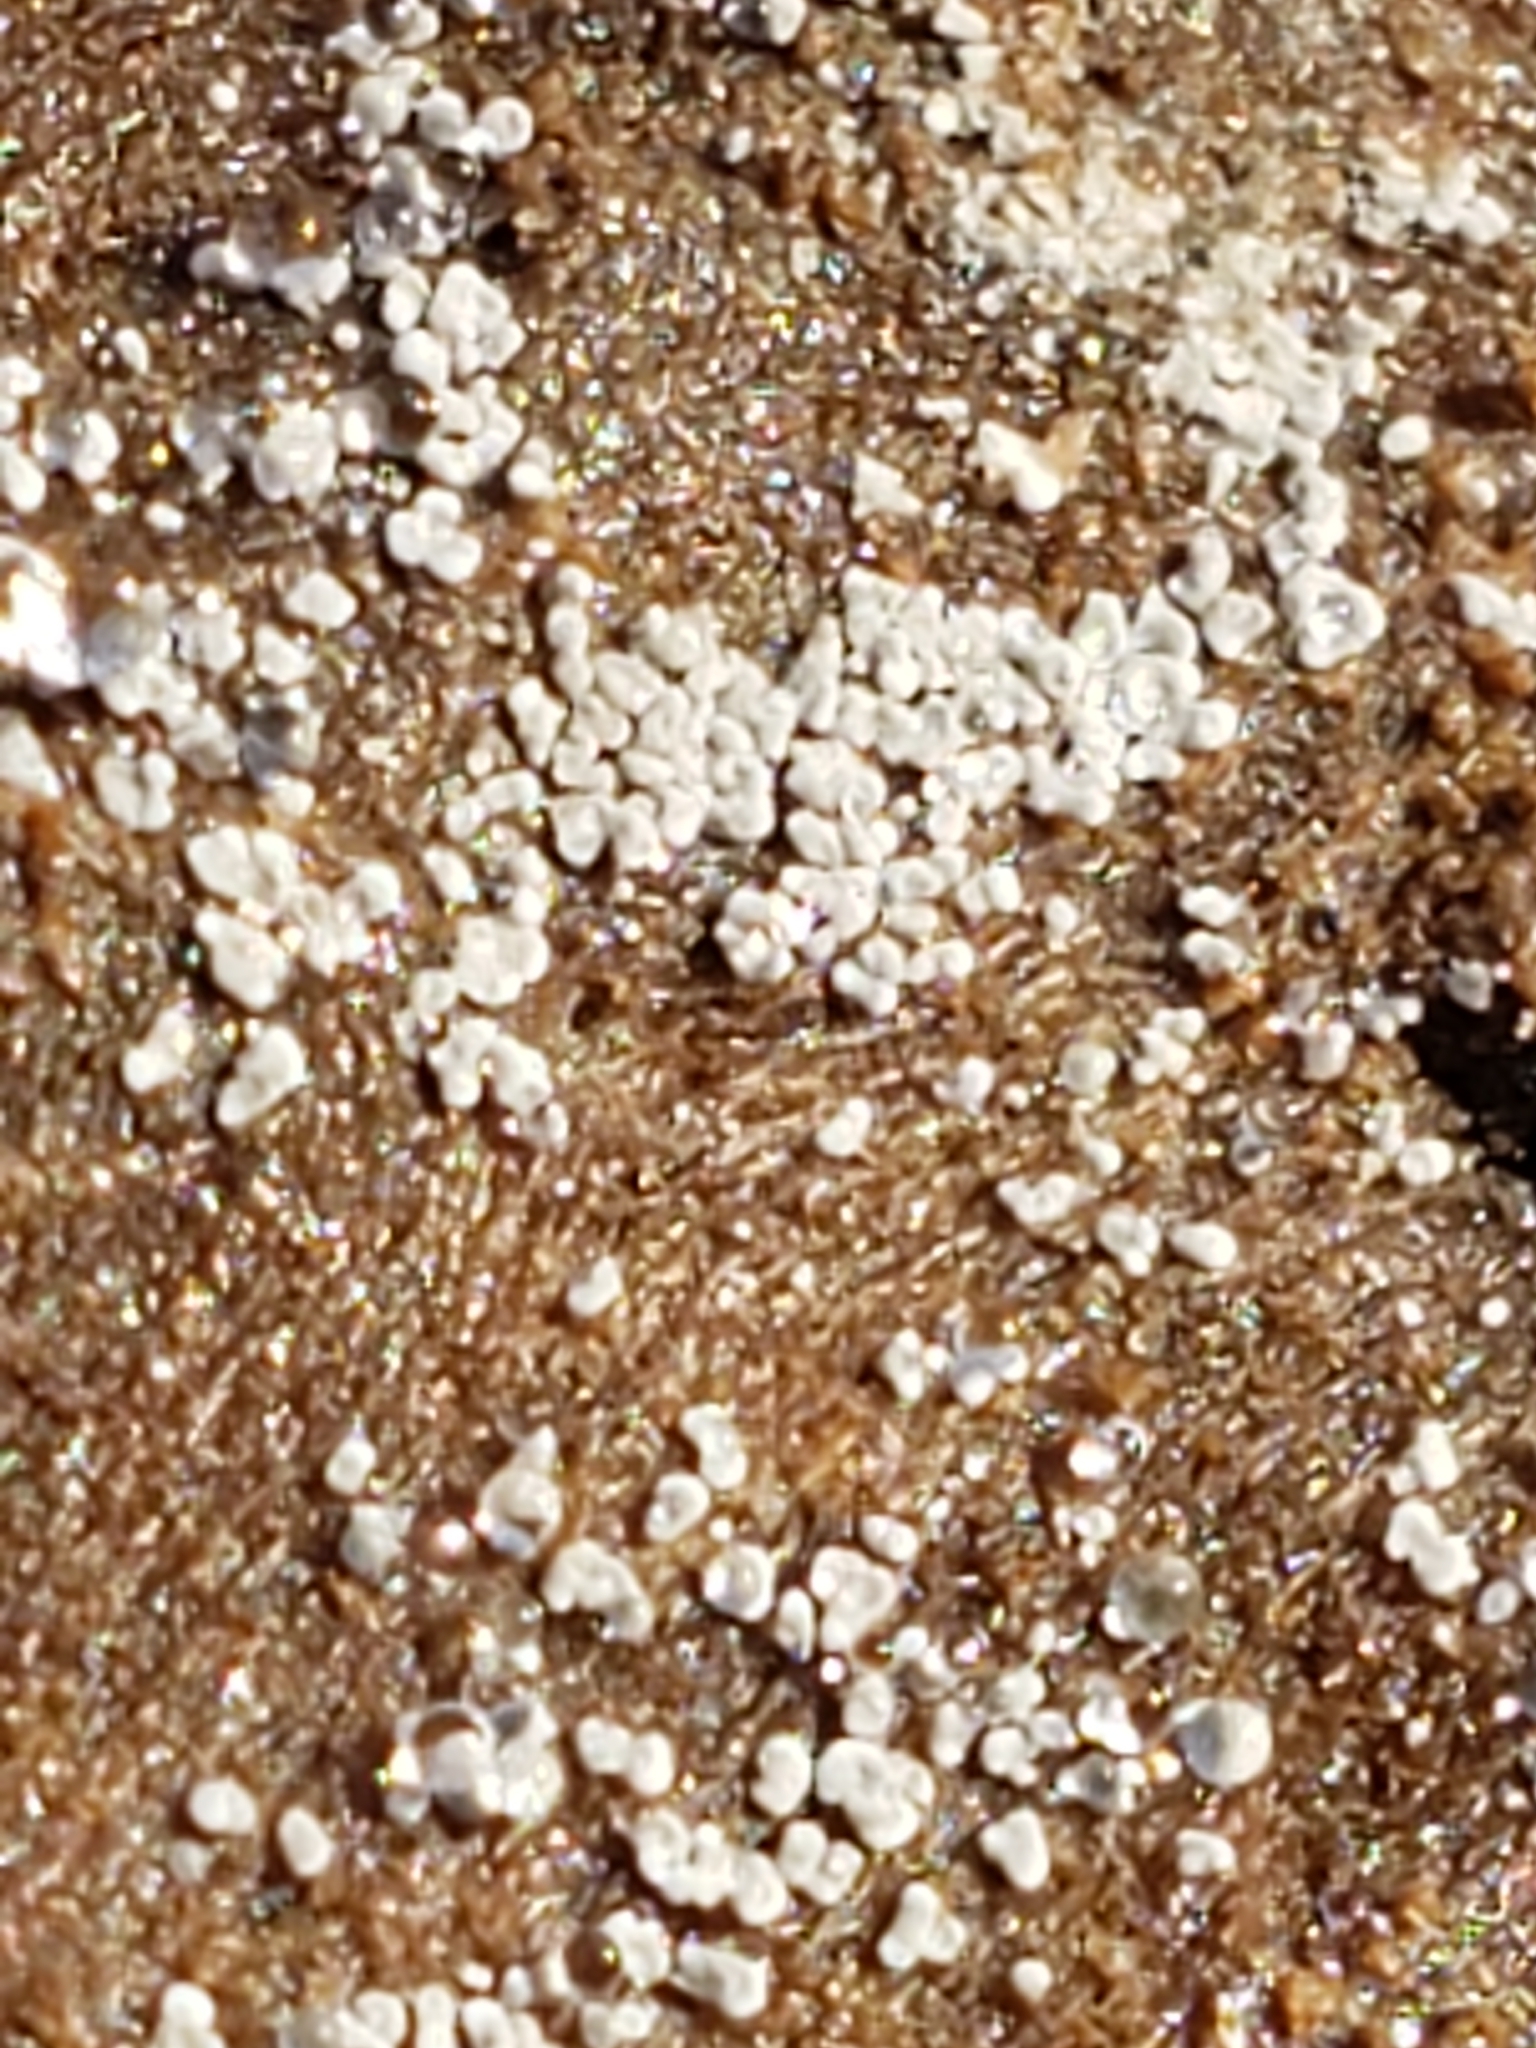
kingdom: Fungi
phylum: Basidiomycota
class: Agaricomycetes
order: Russulales
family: Stereaceae
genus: Xylobolus
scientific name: Xylobolus frustulatus
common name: Ceramic parchment
